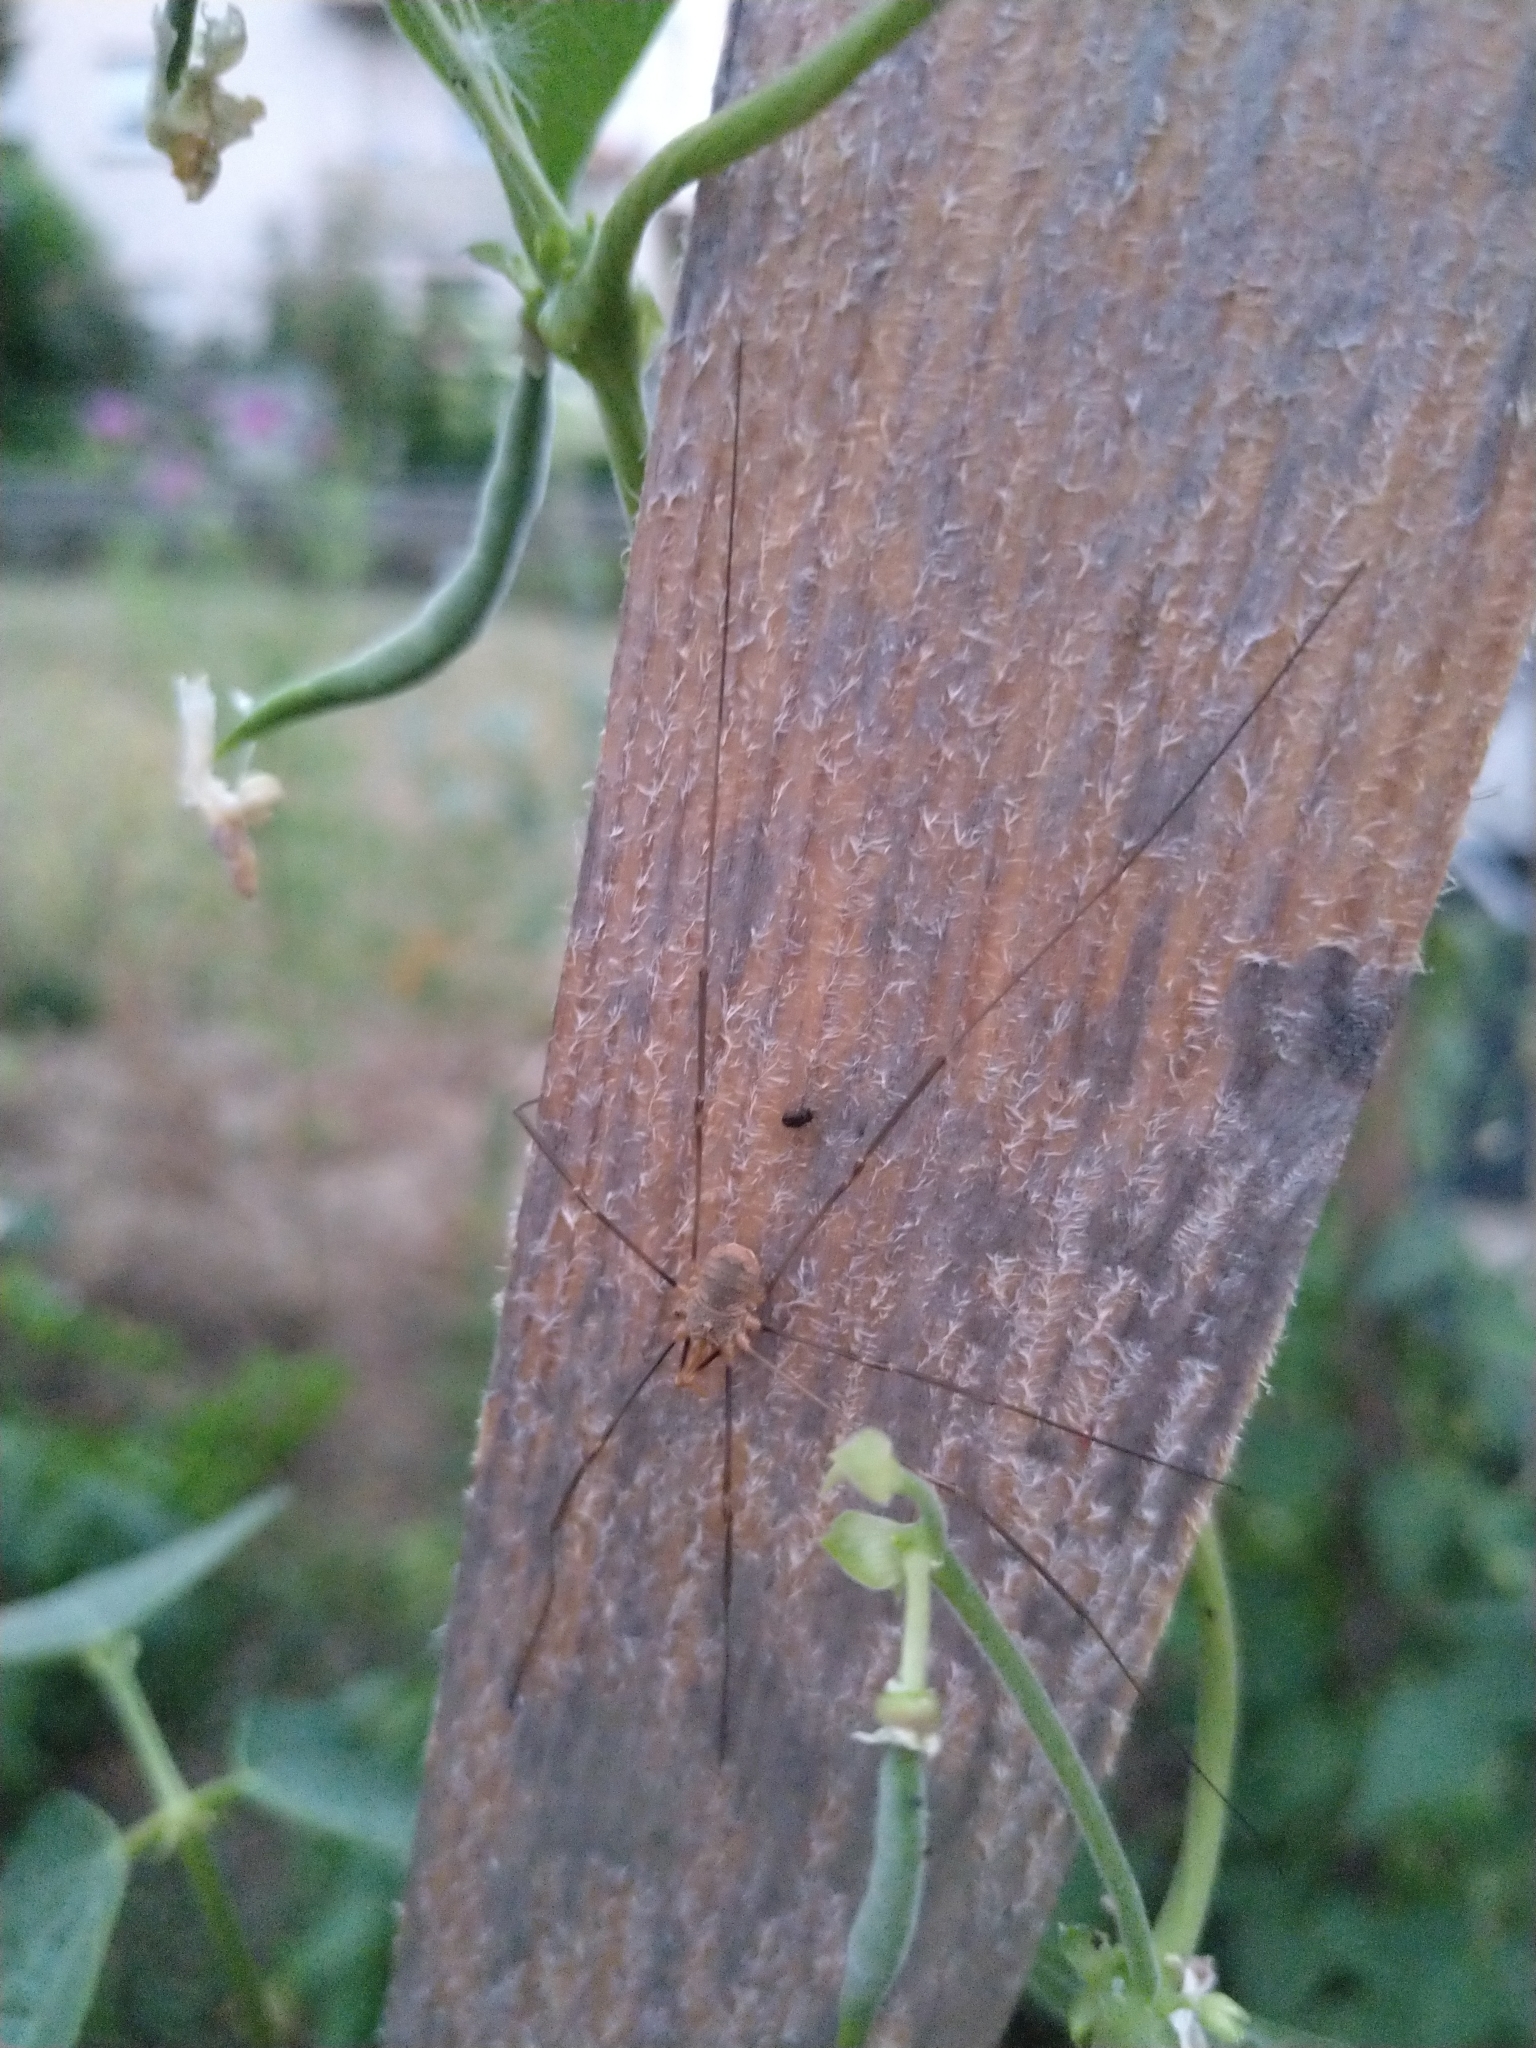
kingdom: Animalia
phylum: Arthropoda
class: Arachnida
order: Opiliones
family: Phalangiidae
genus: Phalangium
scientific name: Phalangium opilio
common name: Daddy longleg
